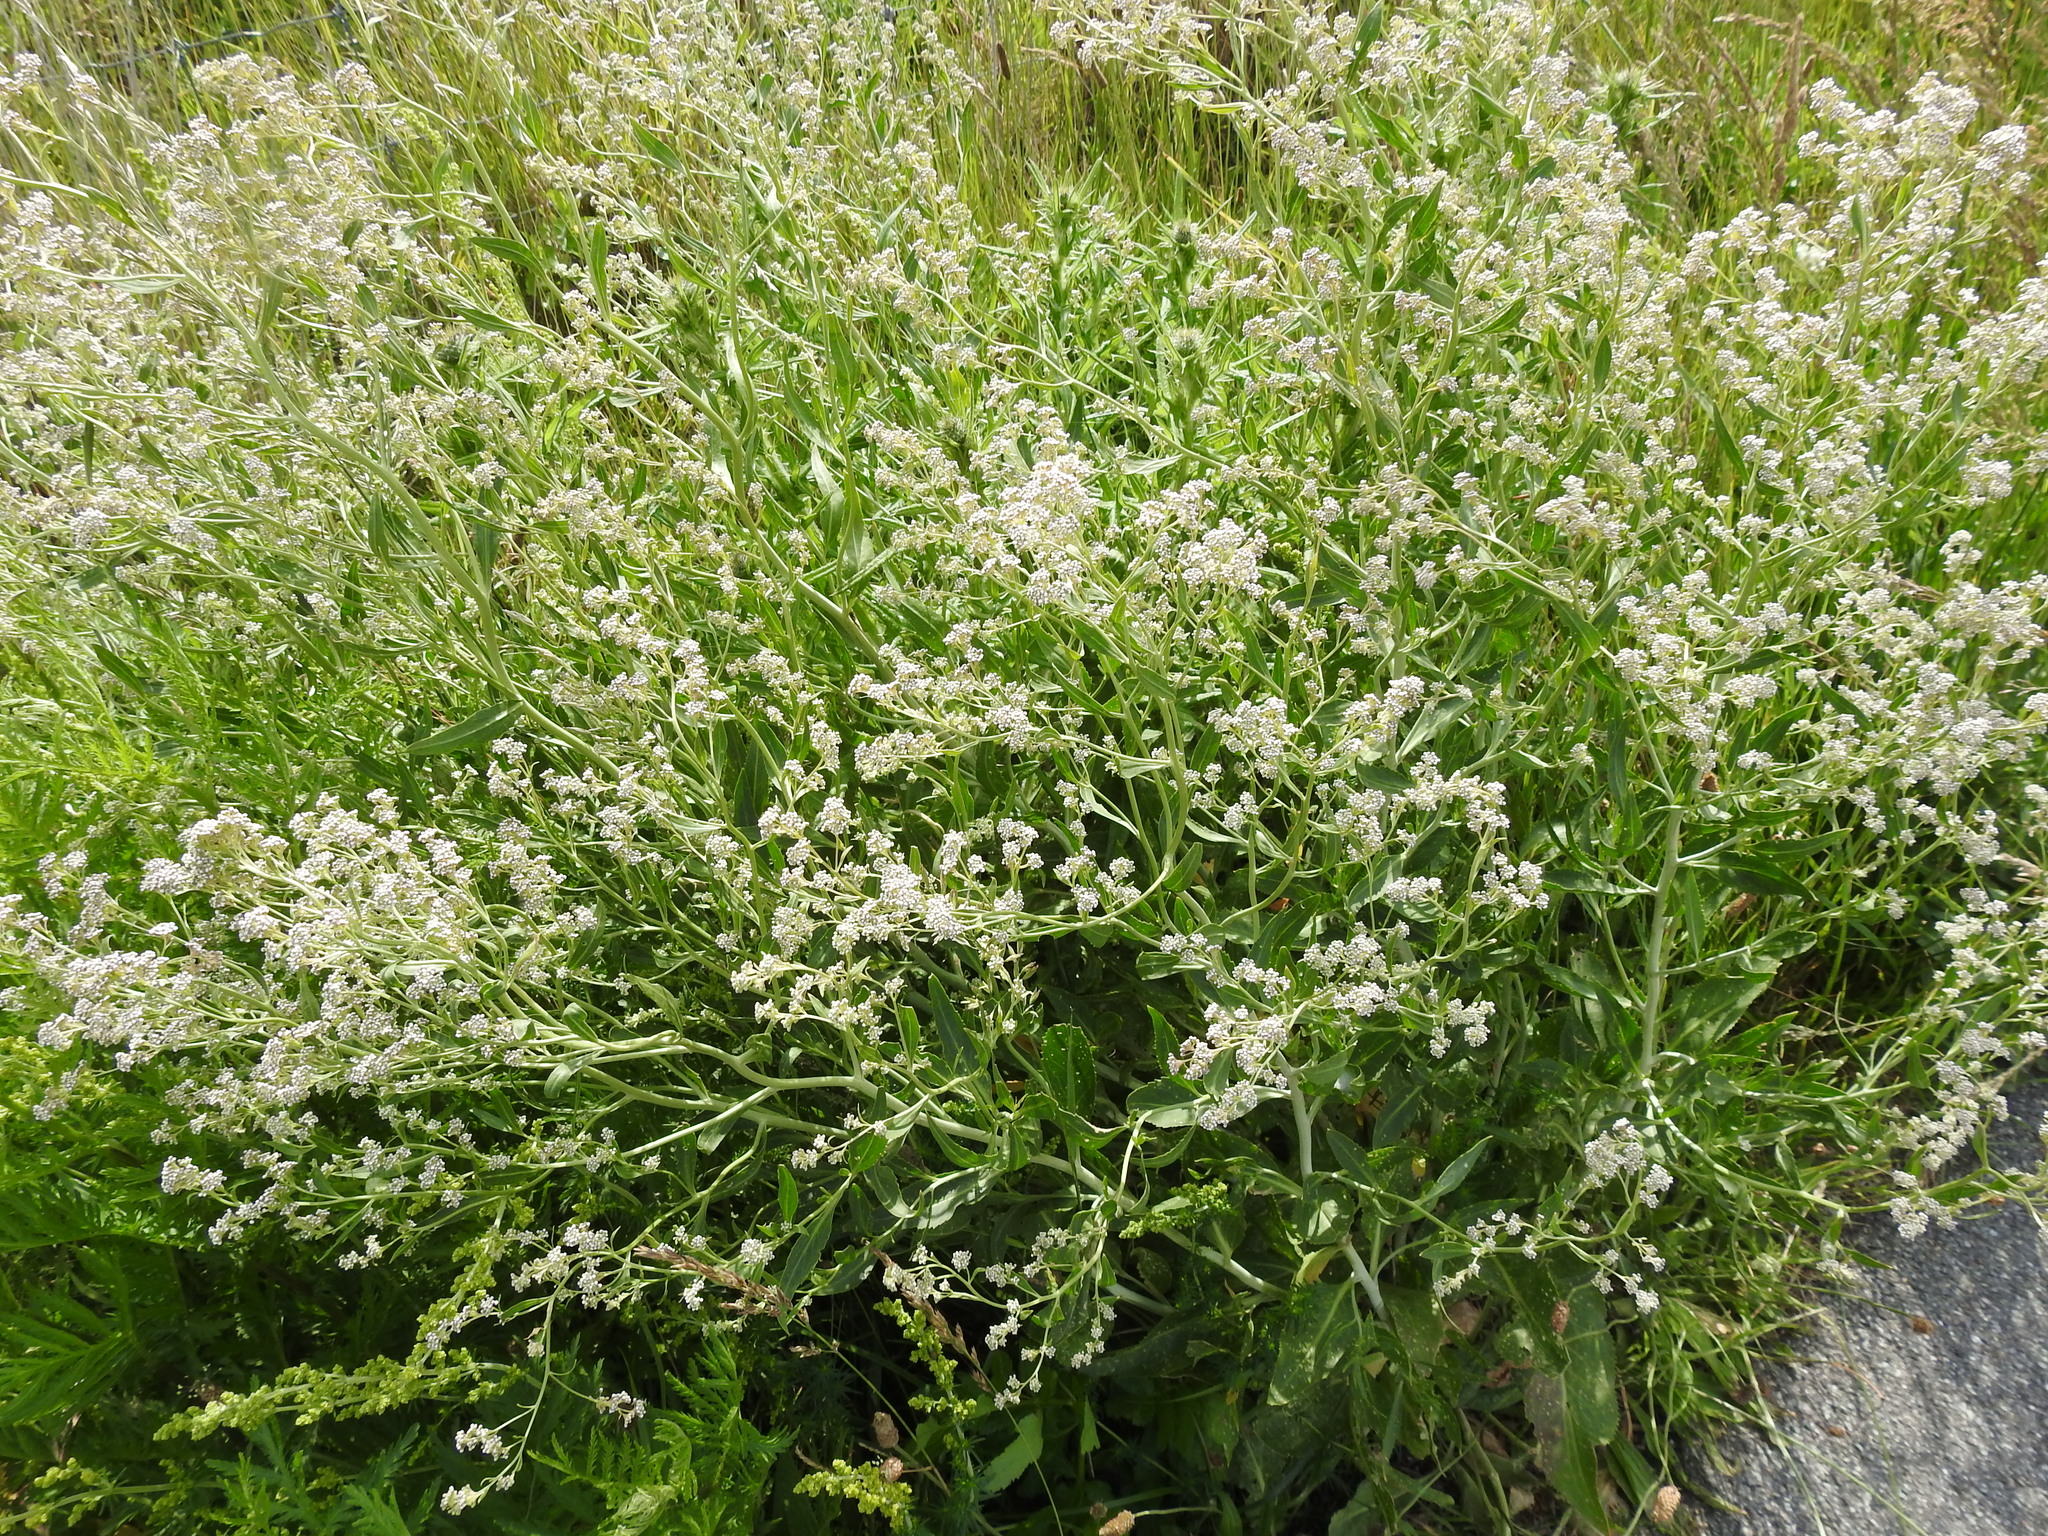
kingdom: Plantae
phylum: Tracheophyta
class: Magnoliopsida
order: Brassicales
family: Brassicaceae
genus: Lepidium
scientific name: Lepidium latifolium
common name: Dittander
